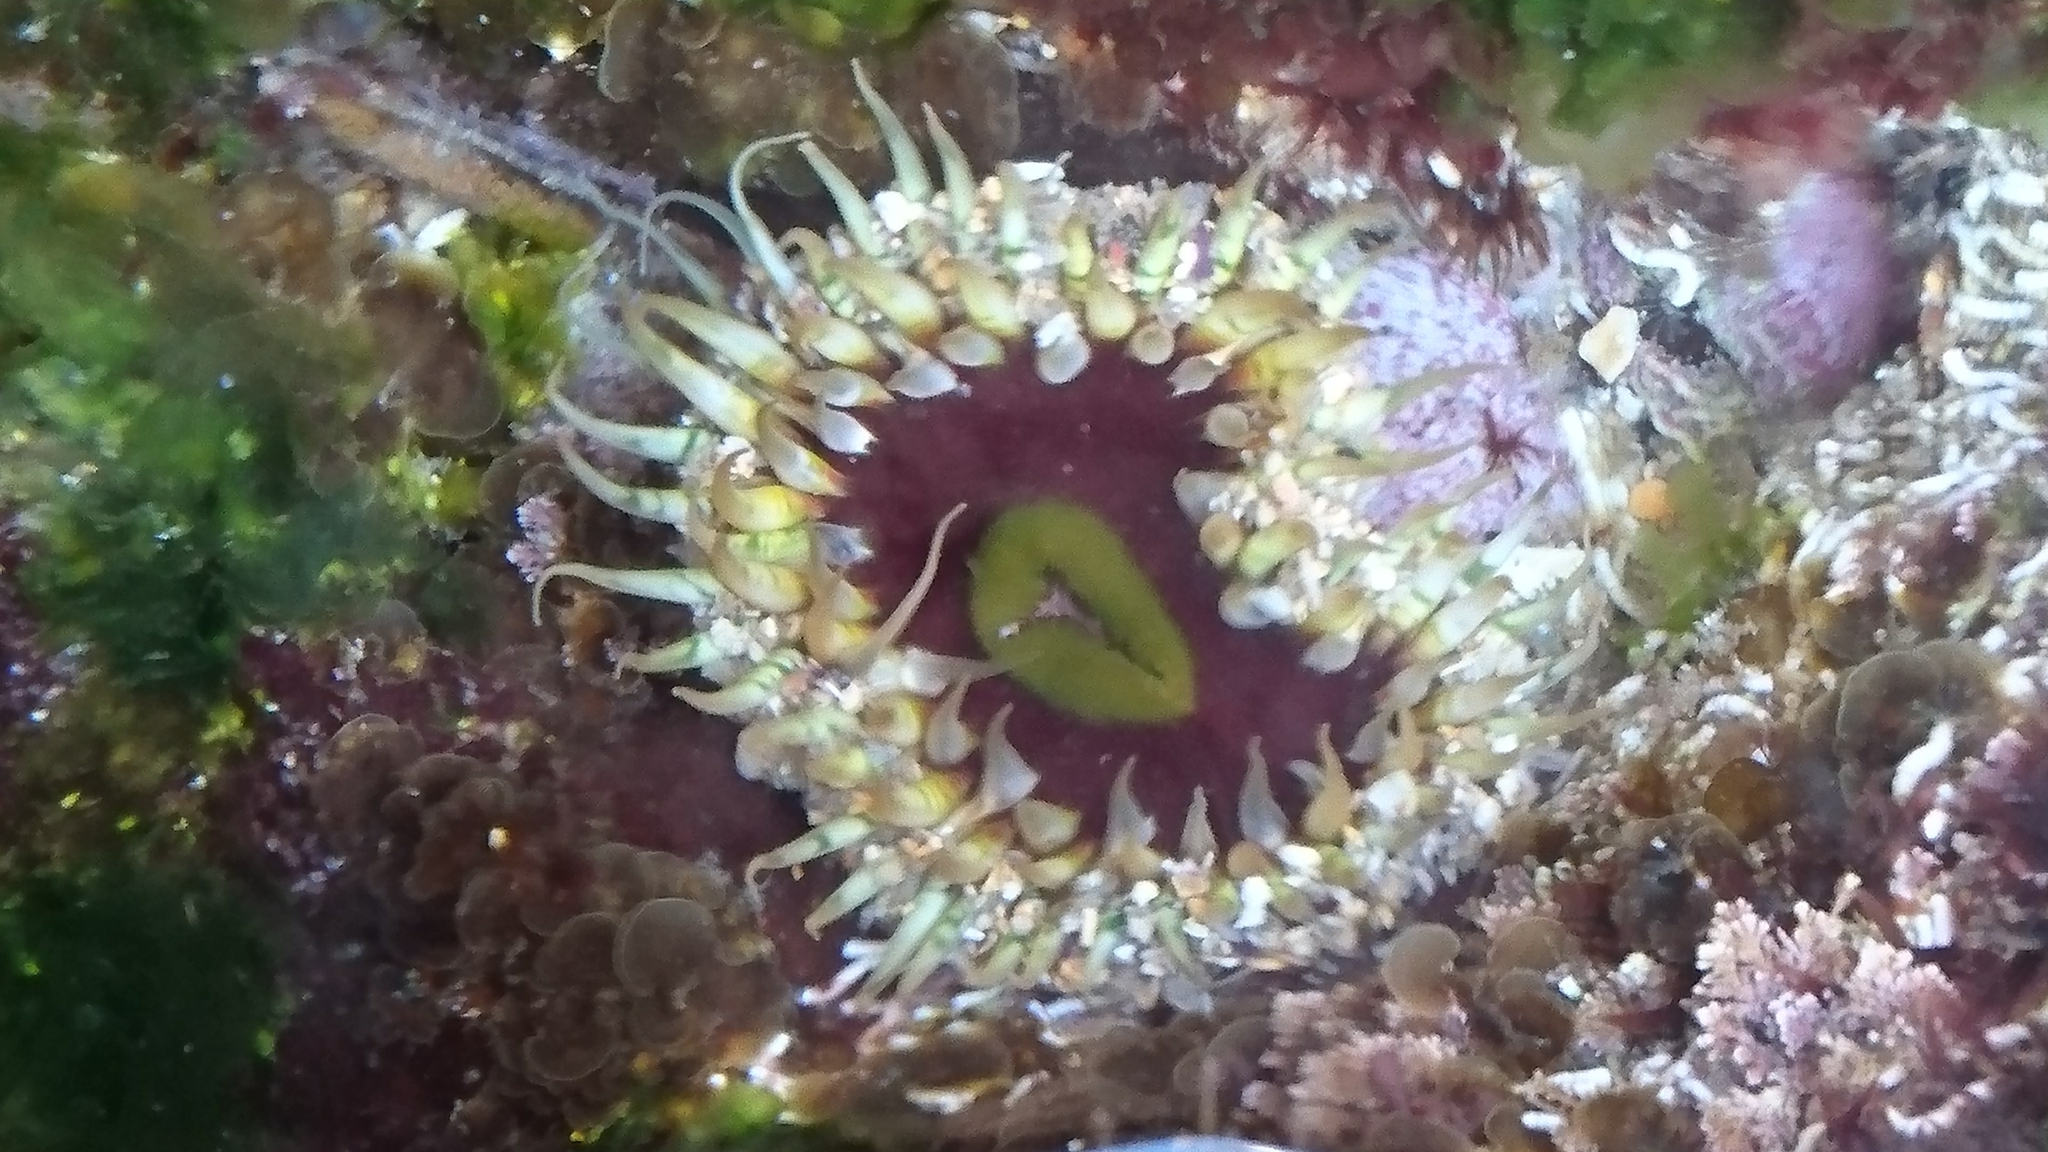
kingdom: Animalia
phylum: Cnidaria
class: Anthozoa
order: Actiniaria
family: Actiniidae
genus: Oulactis
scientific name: Oulactis muscosa
